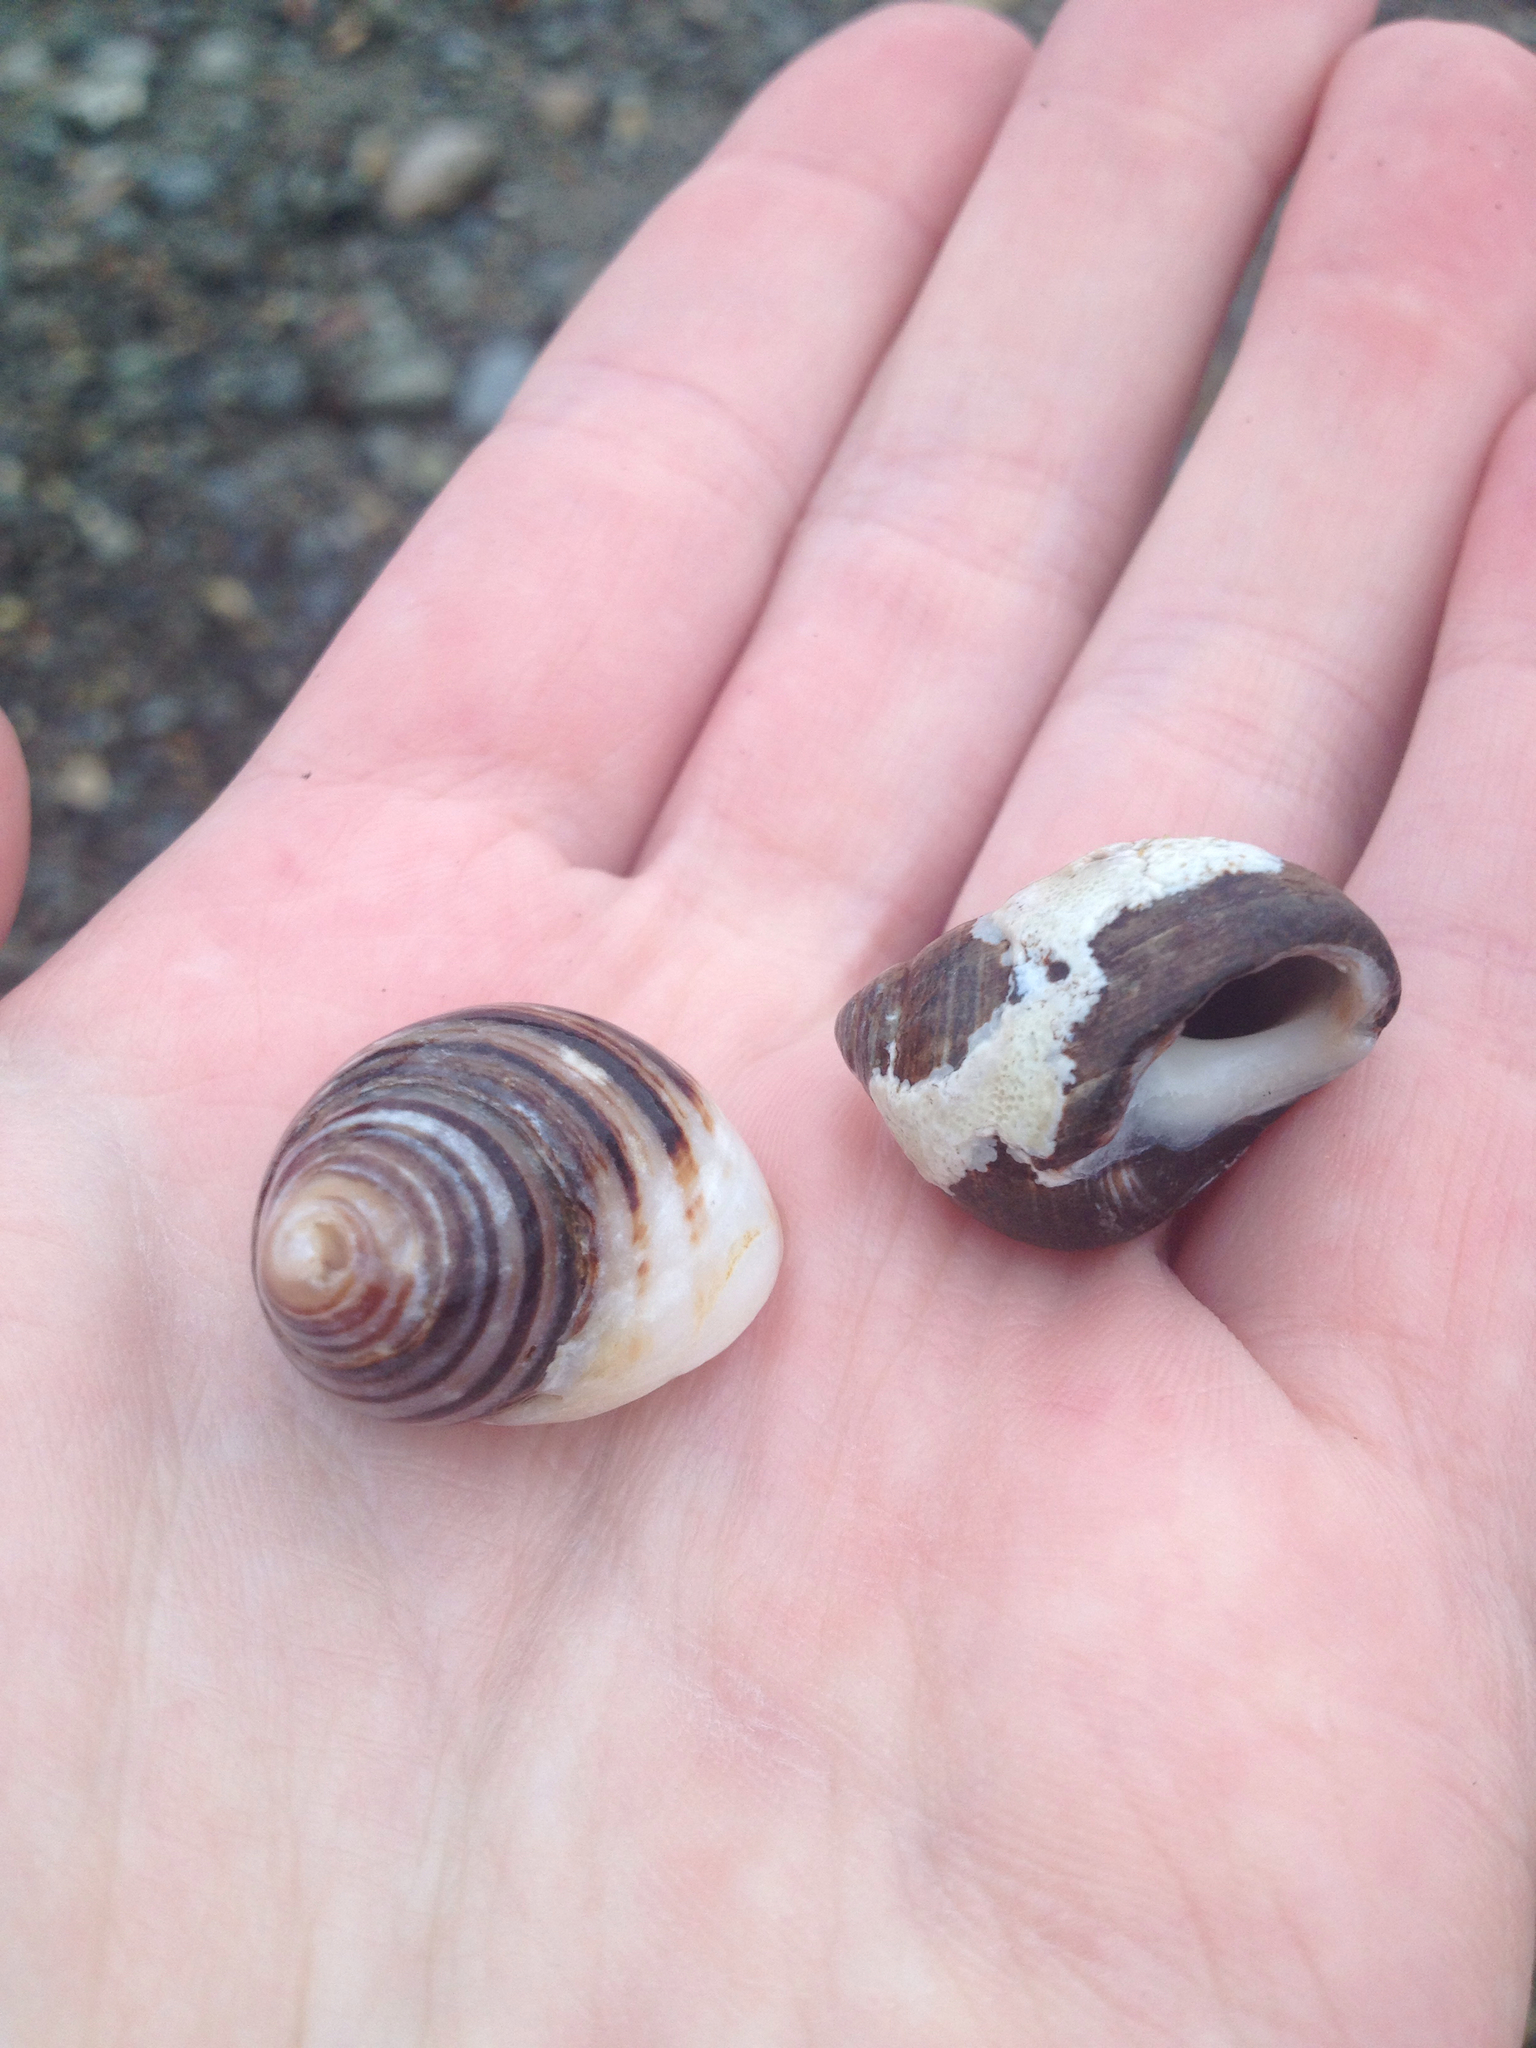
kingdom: Animalia
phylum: Mollusca
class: Gastropoda
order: Littorinimorpha
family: Littorinidae
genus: Littorina
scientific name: Littorina littorea
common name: Common periwinkle
